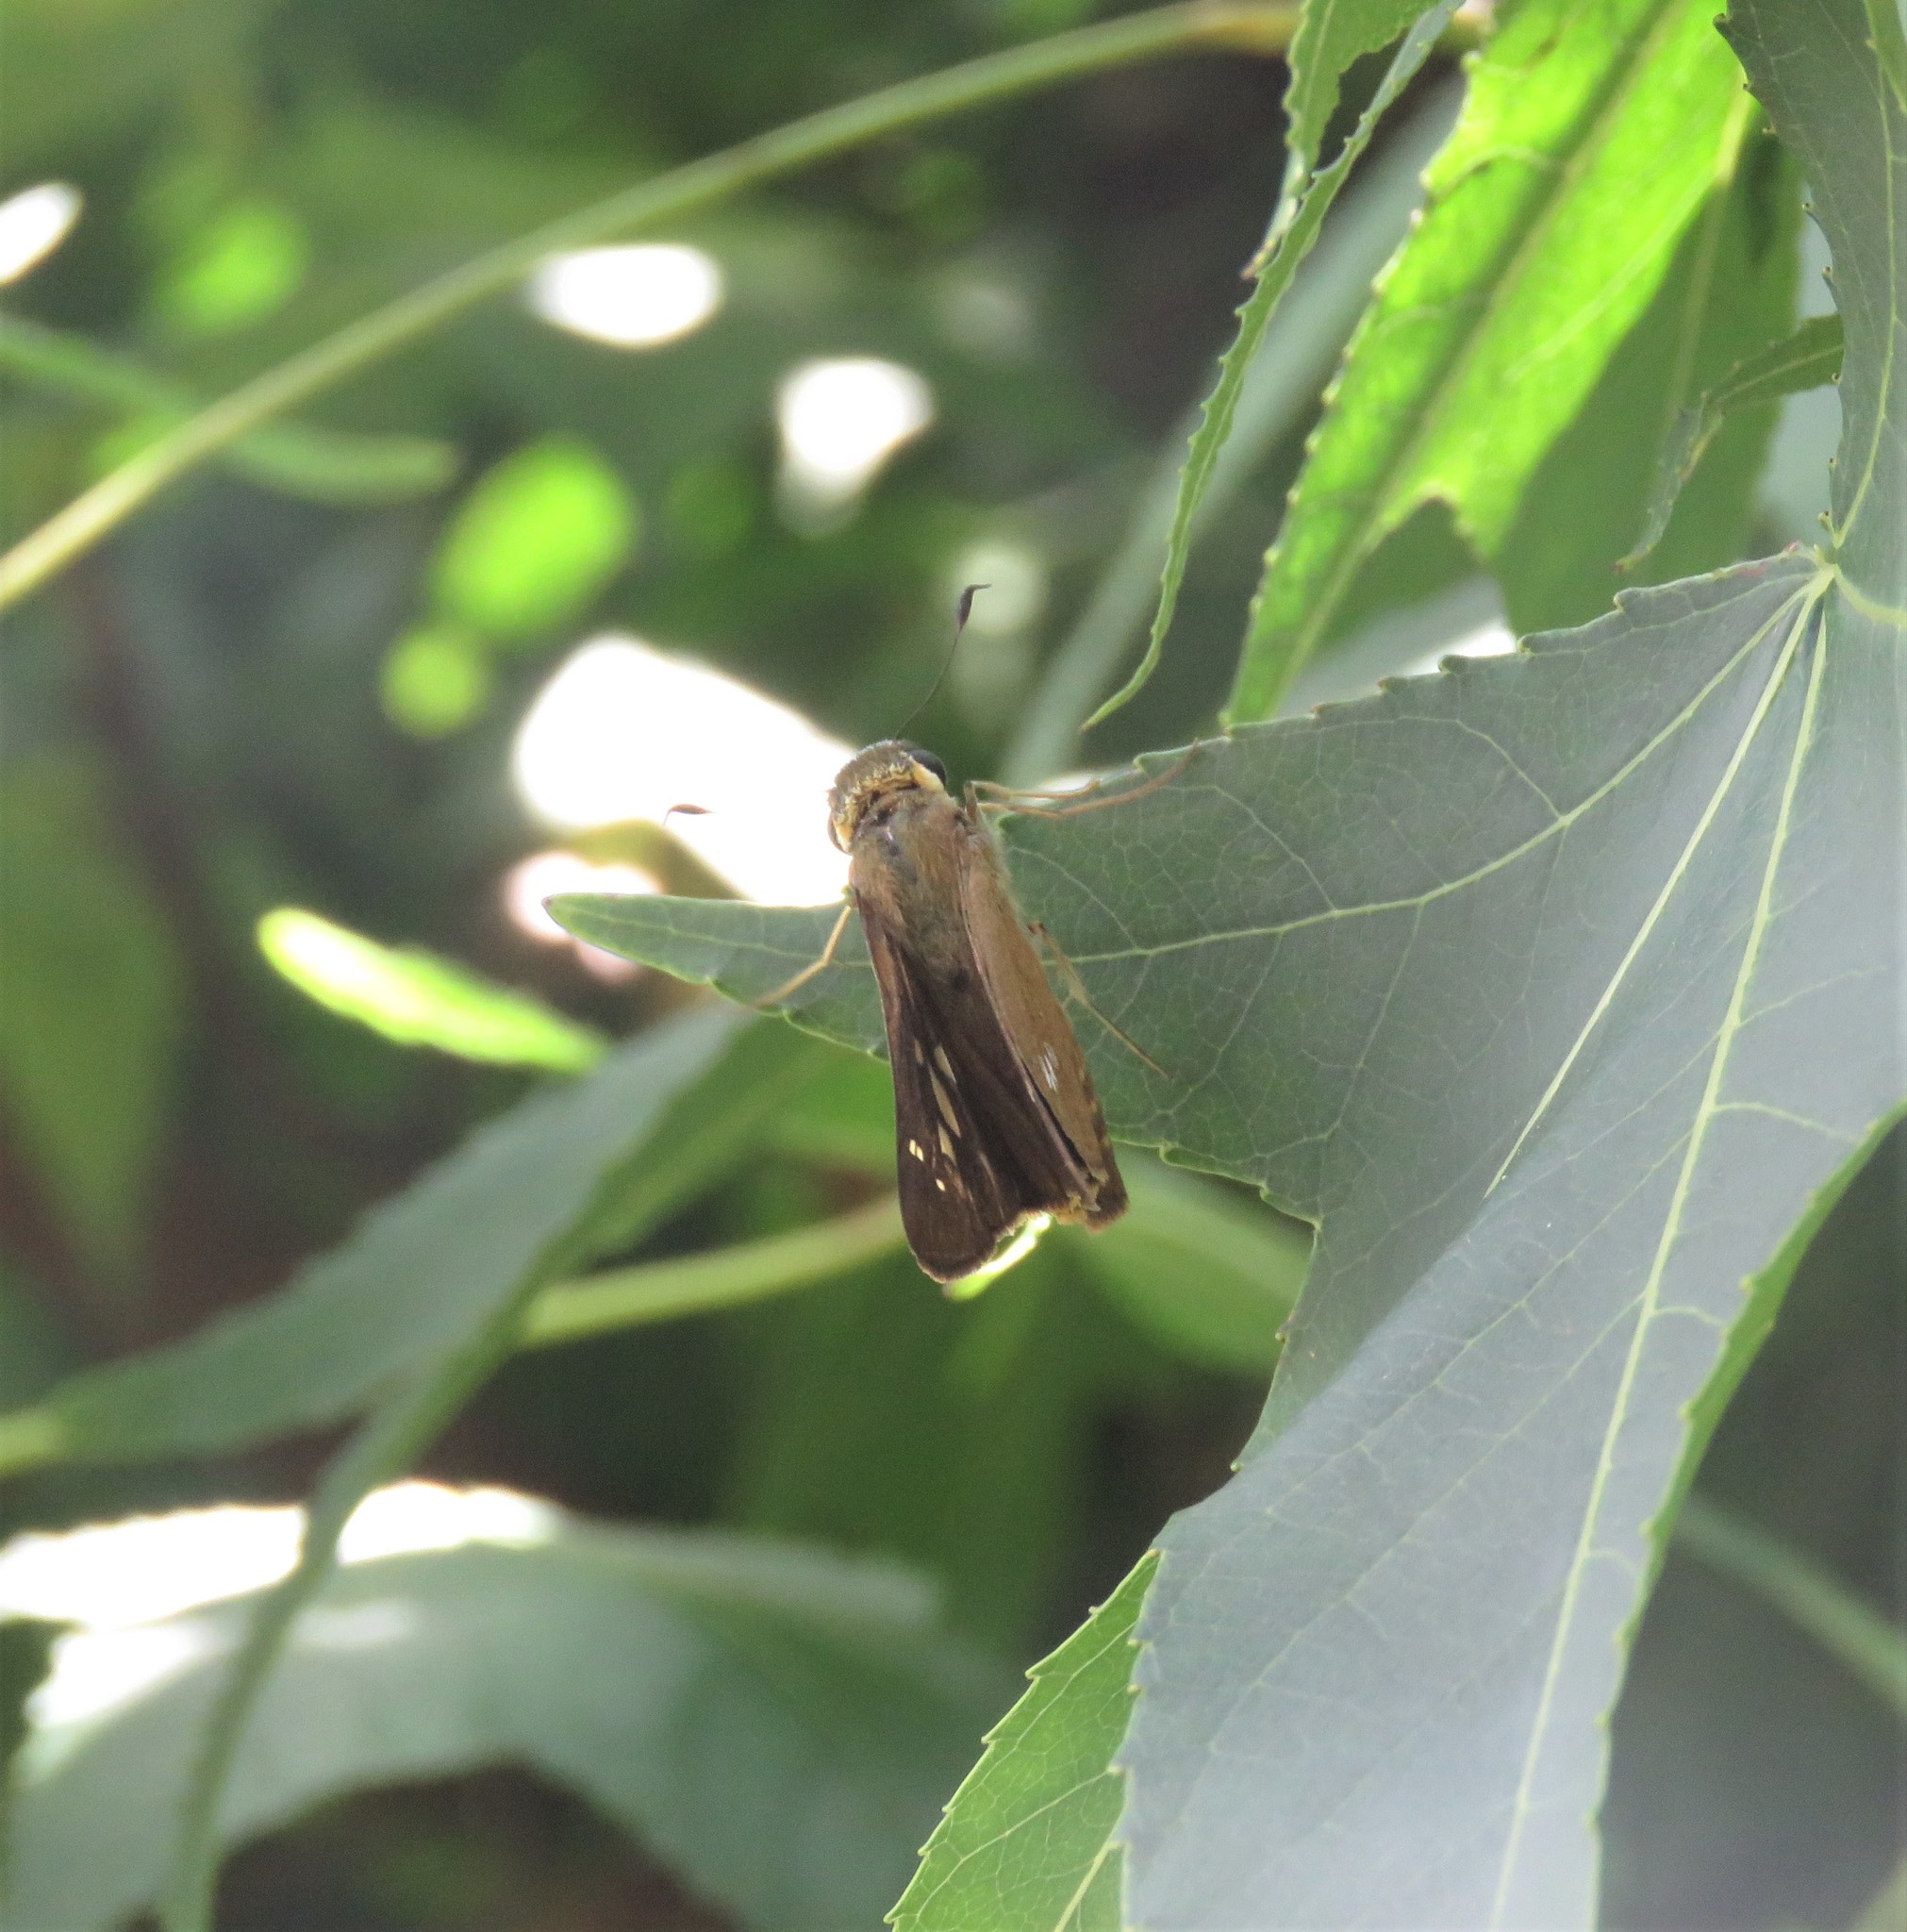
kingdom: Animalia
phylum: Arthropoda
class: Insecta
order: Lepidoptera
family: Hesperiidae
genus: Calpodes
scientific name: Calpodes ethlius
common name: Brazilian skipper
